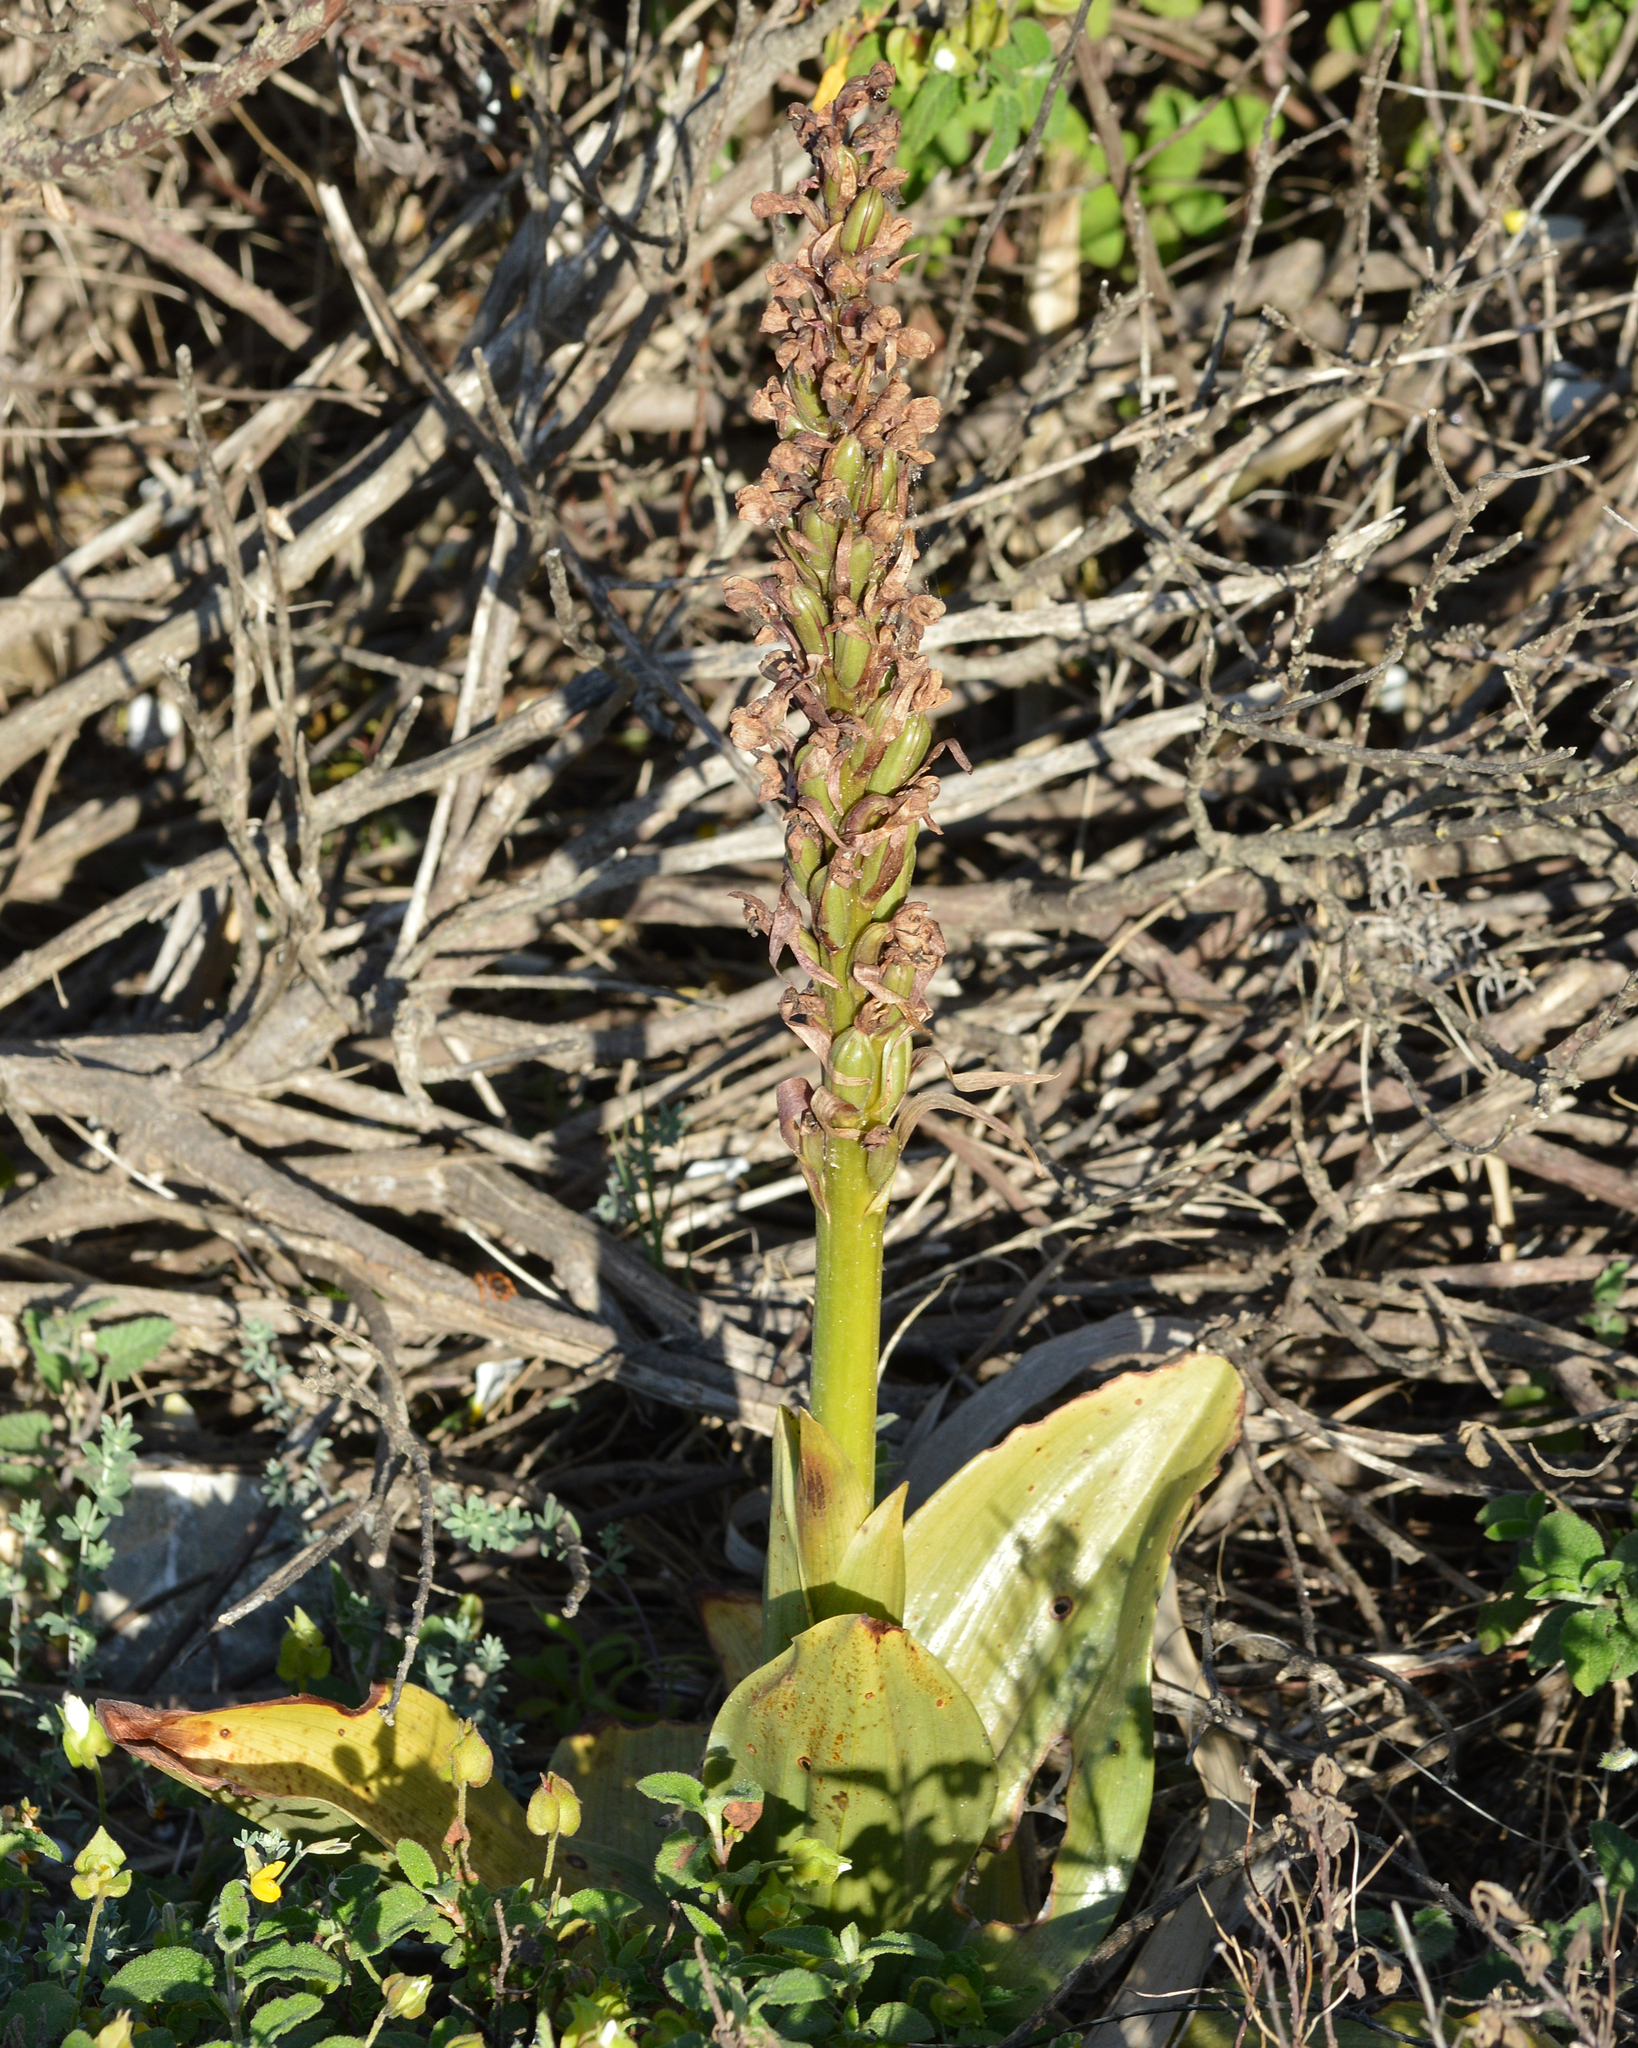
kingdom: Plantae
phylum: Tracheophyta
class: Liliopsida
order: Asparagales
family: Orchidaceae
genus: Himantoglossum
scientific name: Himantoglossum robertianum
